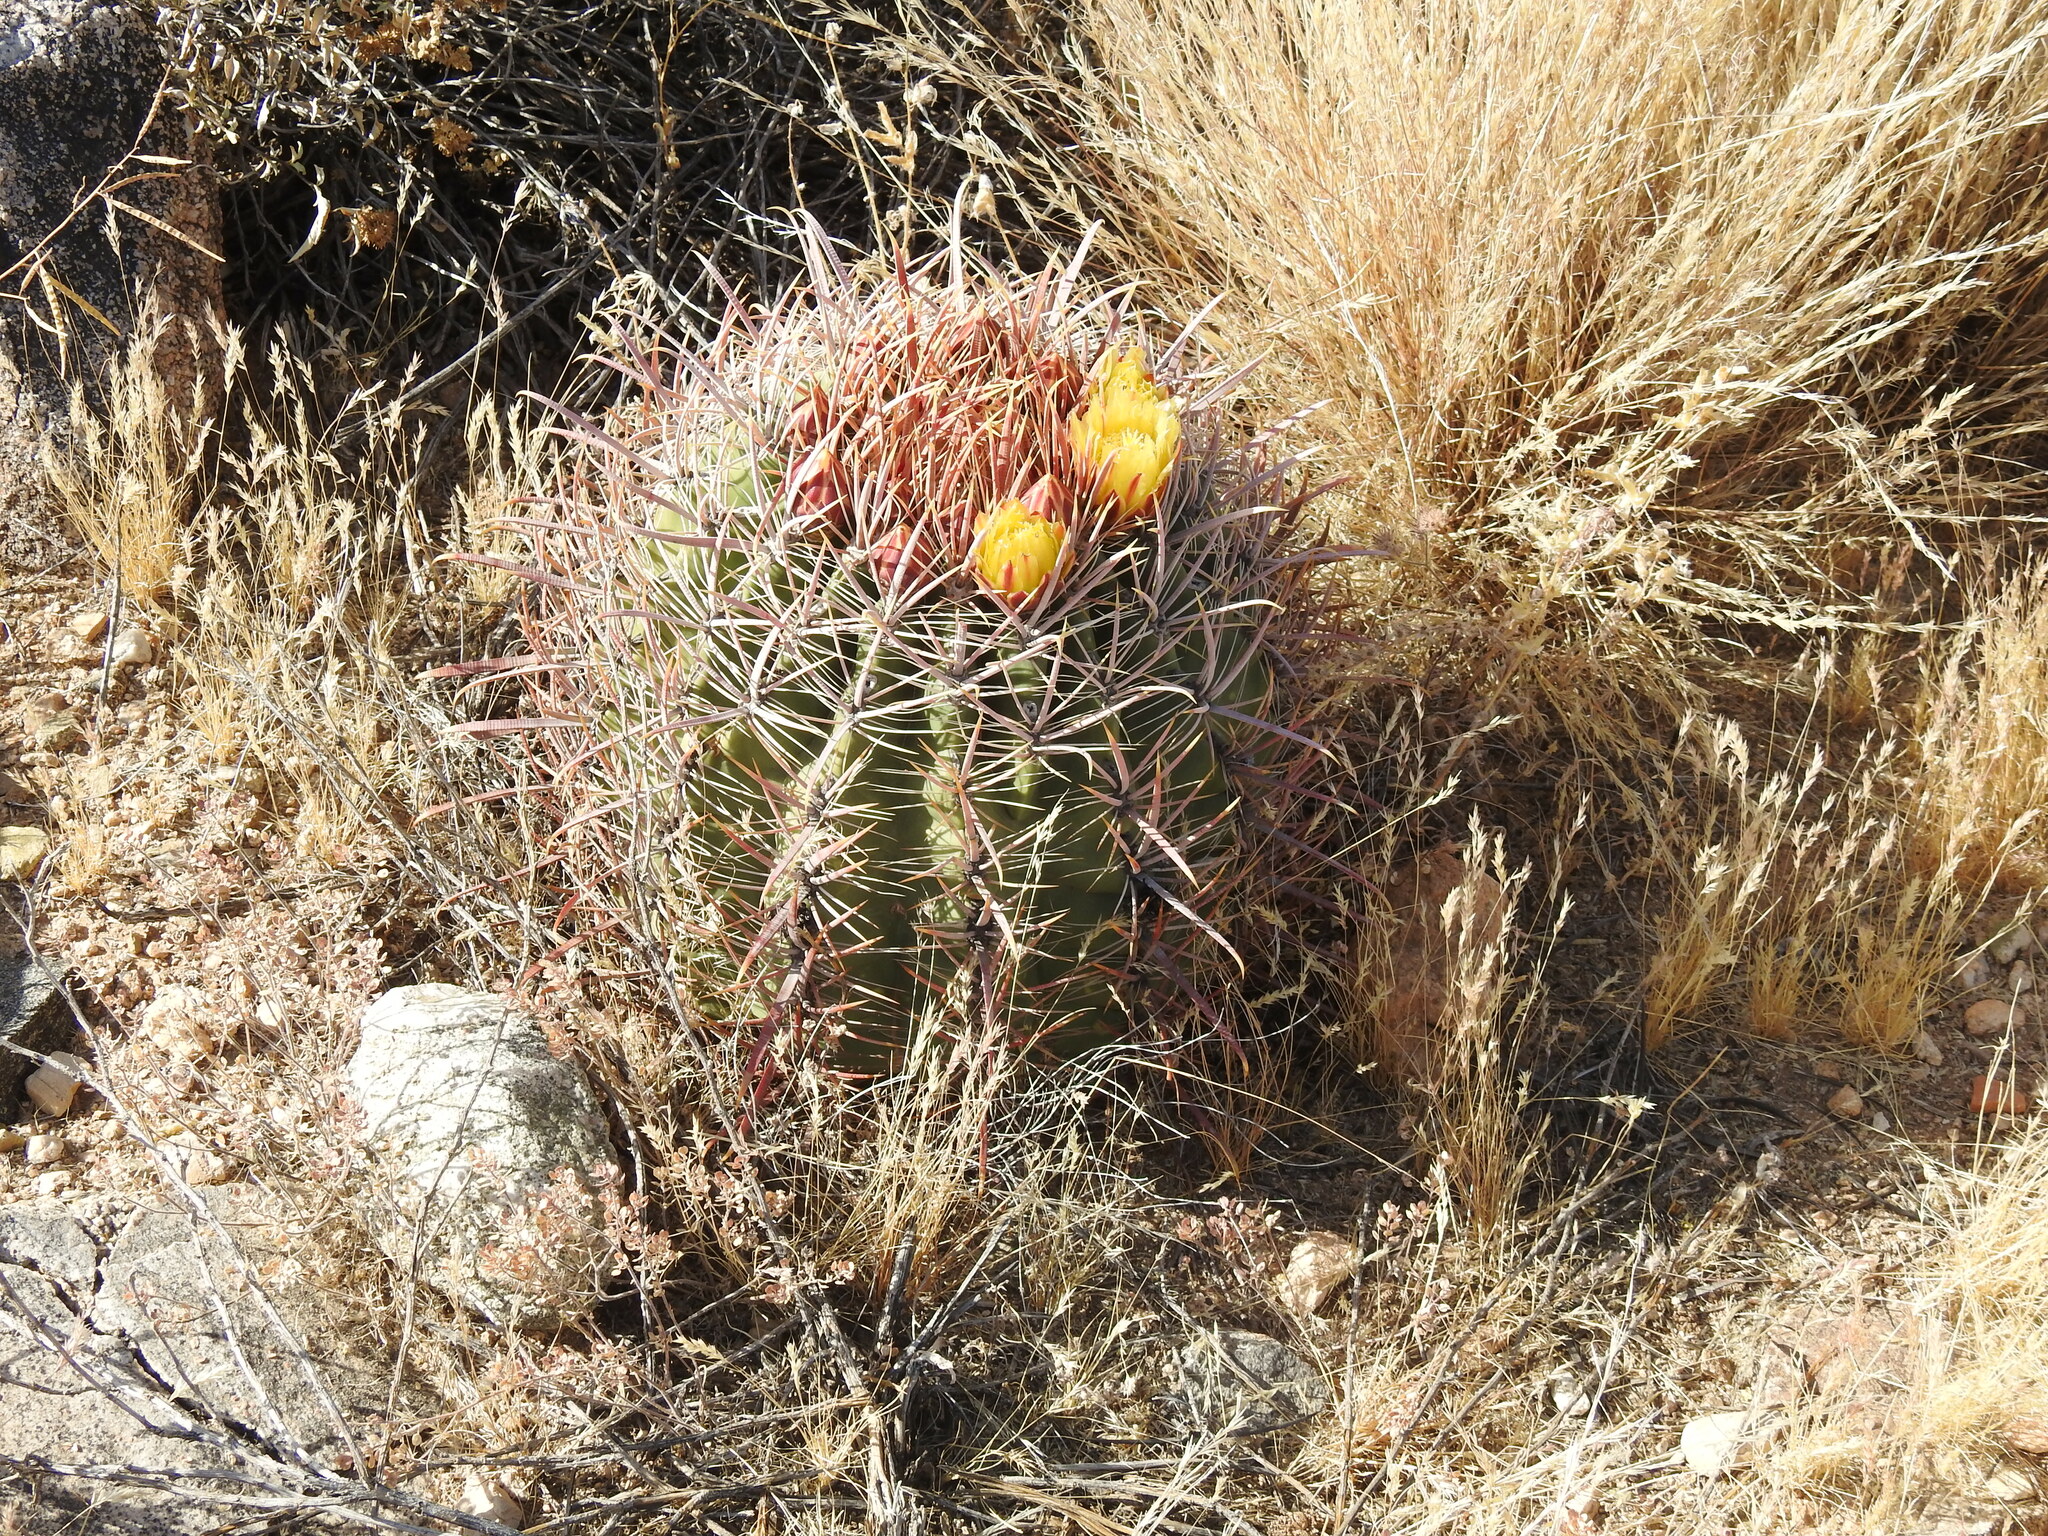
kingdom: Plantae
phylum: Tracheophyta
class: Magnoliopsida
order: Caryophyllales
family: Cactaceae
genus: Ferocactus
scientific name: Ferocactus cylindraceus
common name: California barrel cactus
